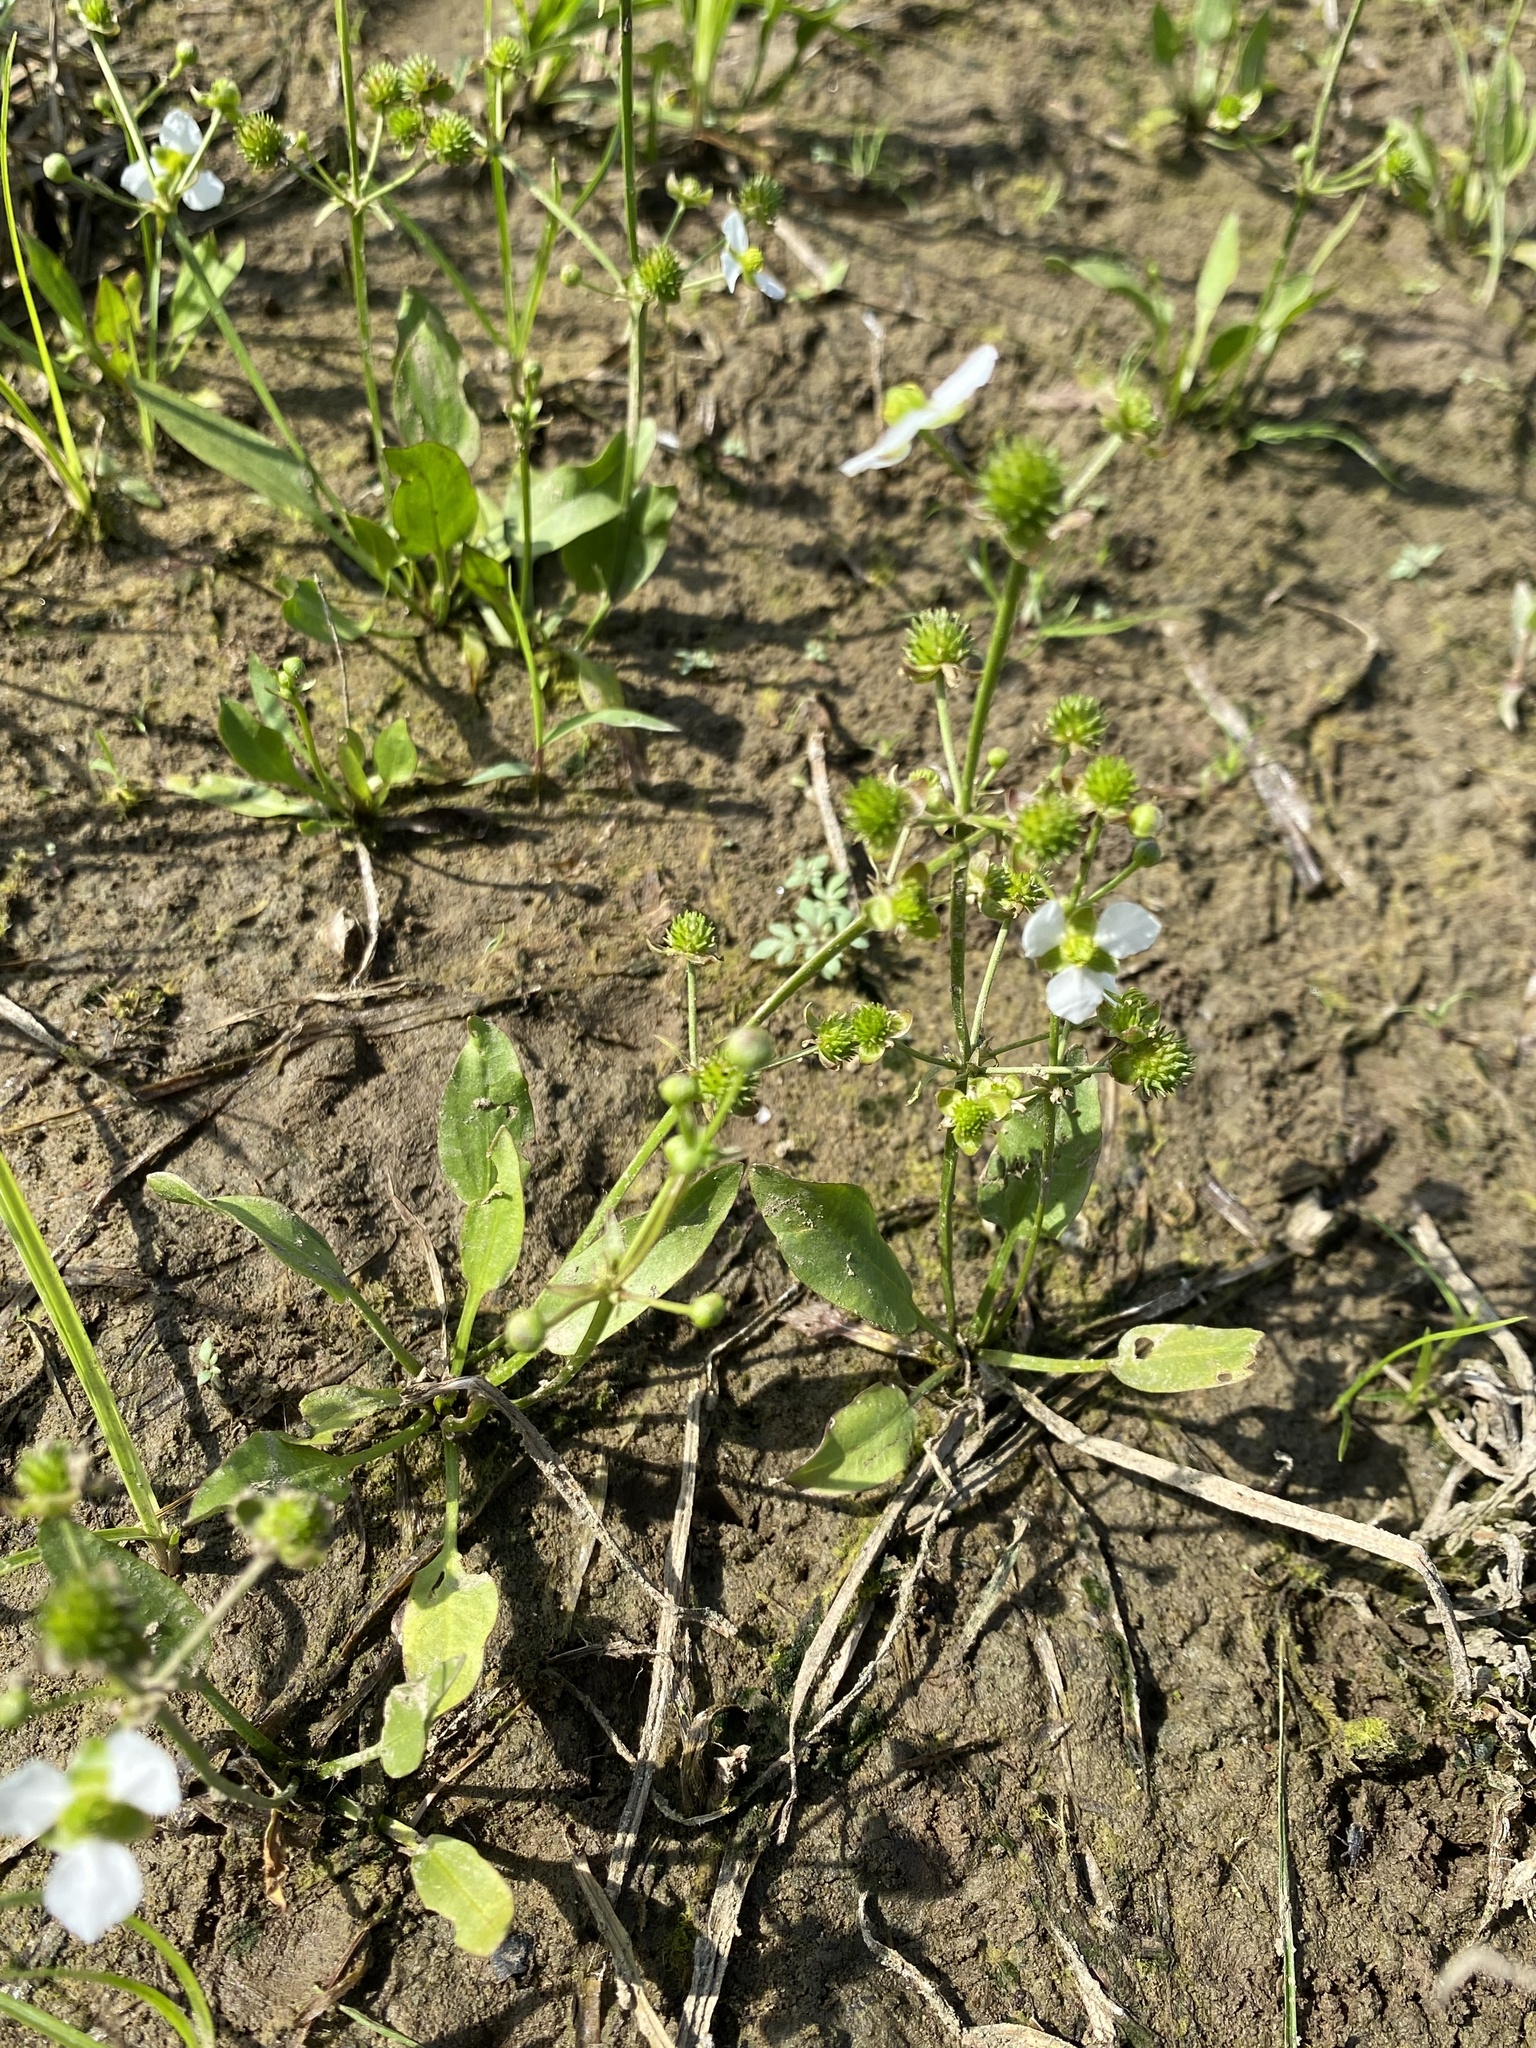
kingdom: Plantae
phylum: Tracheophyta
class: Liliopsida
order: Alismatales
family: Alismataceae
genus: Echinodorus
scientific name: Echinodorus berteroi
